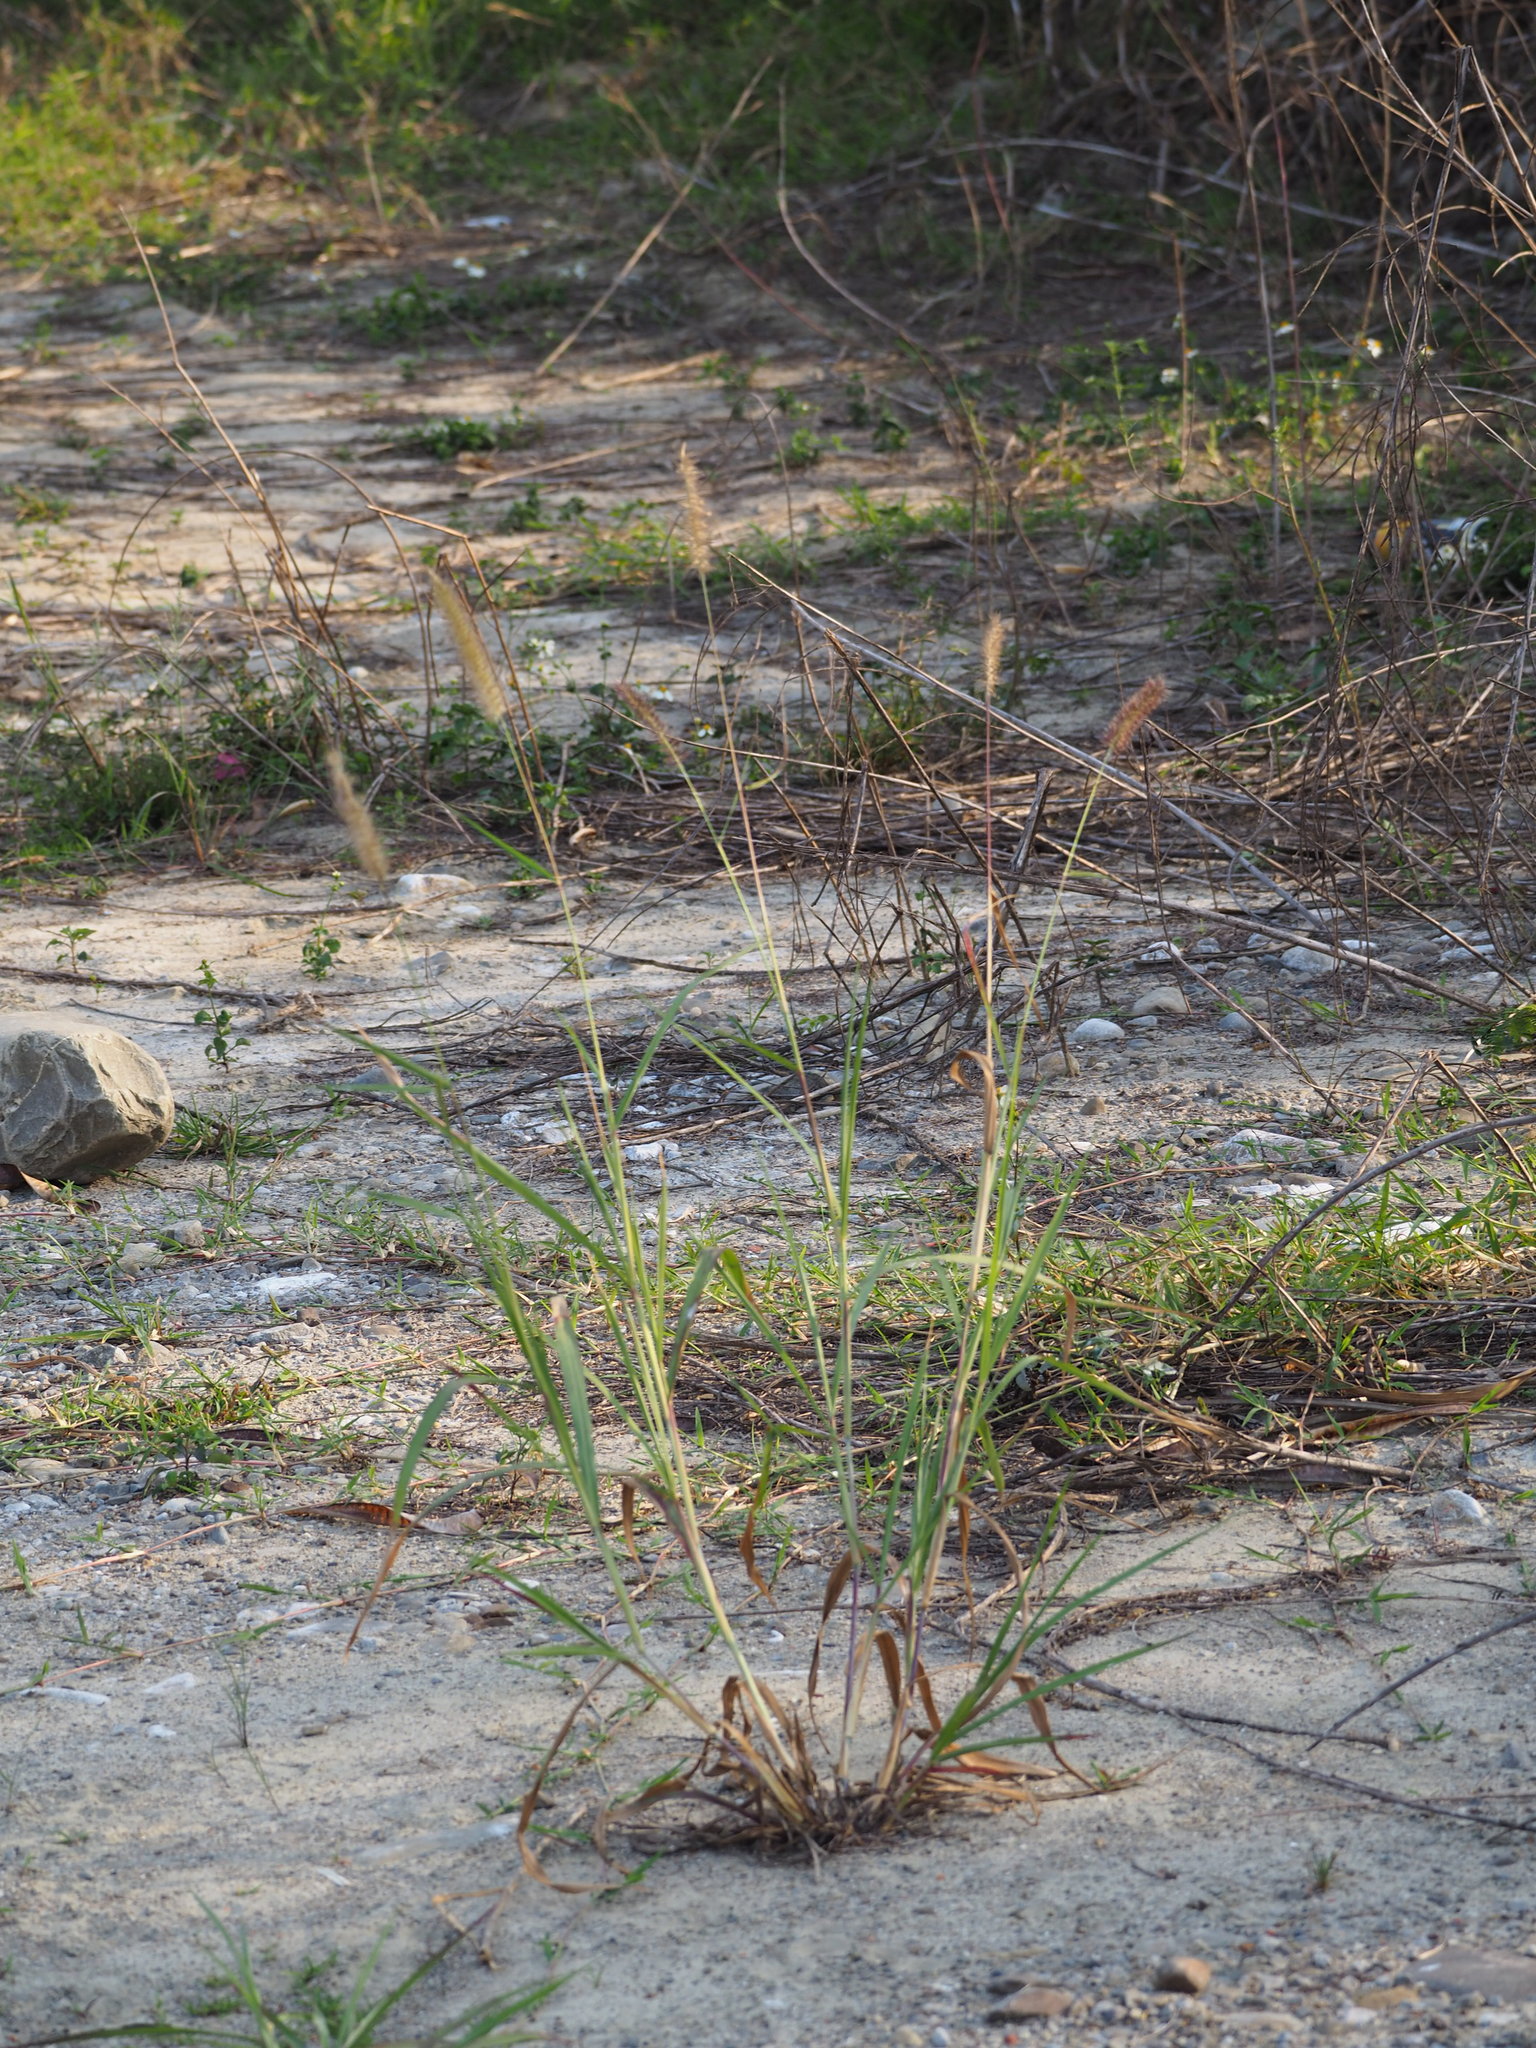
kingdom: Plantae
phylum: Tracheophyta
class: Liliopsida
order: Poales
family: Poaceae
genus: Cenchrus
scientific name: Cenchrus setosus
